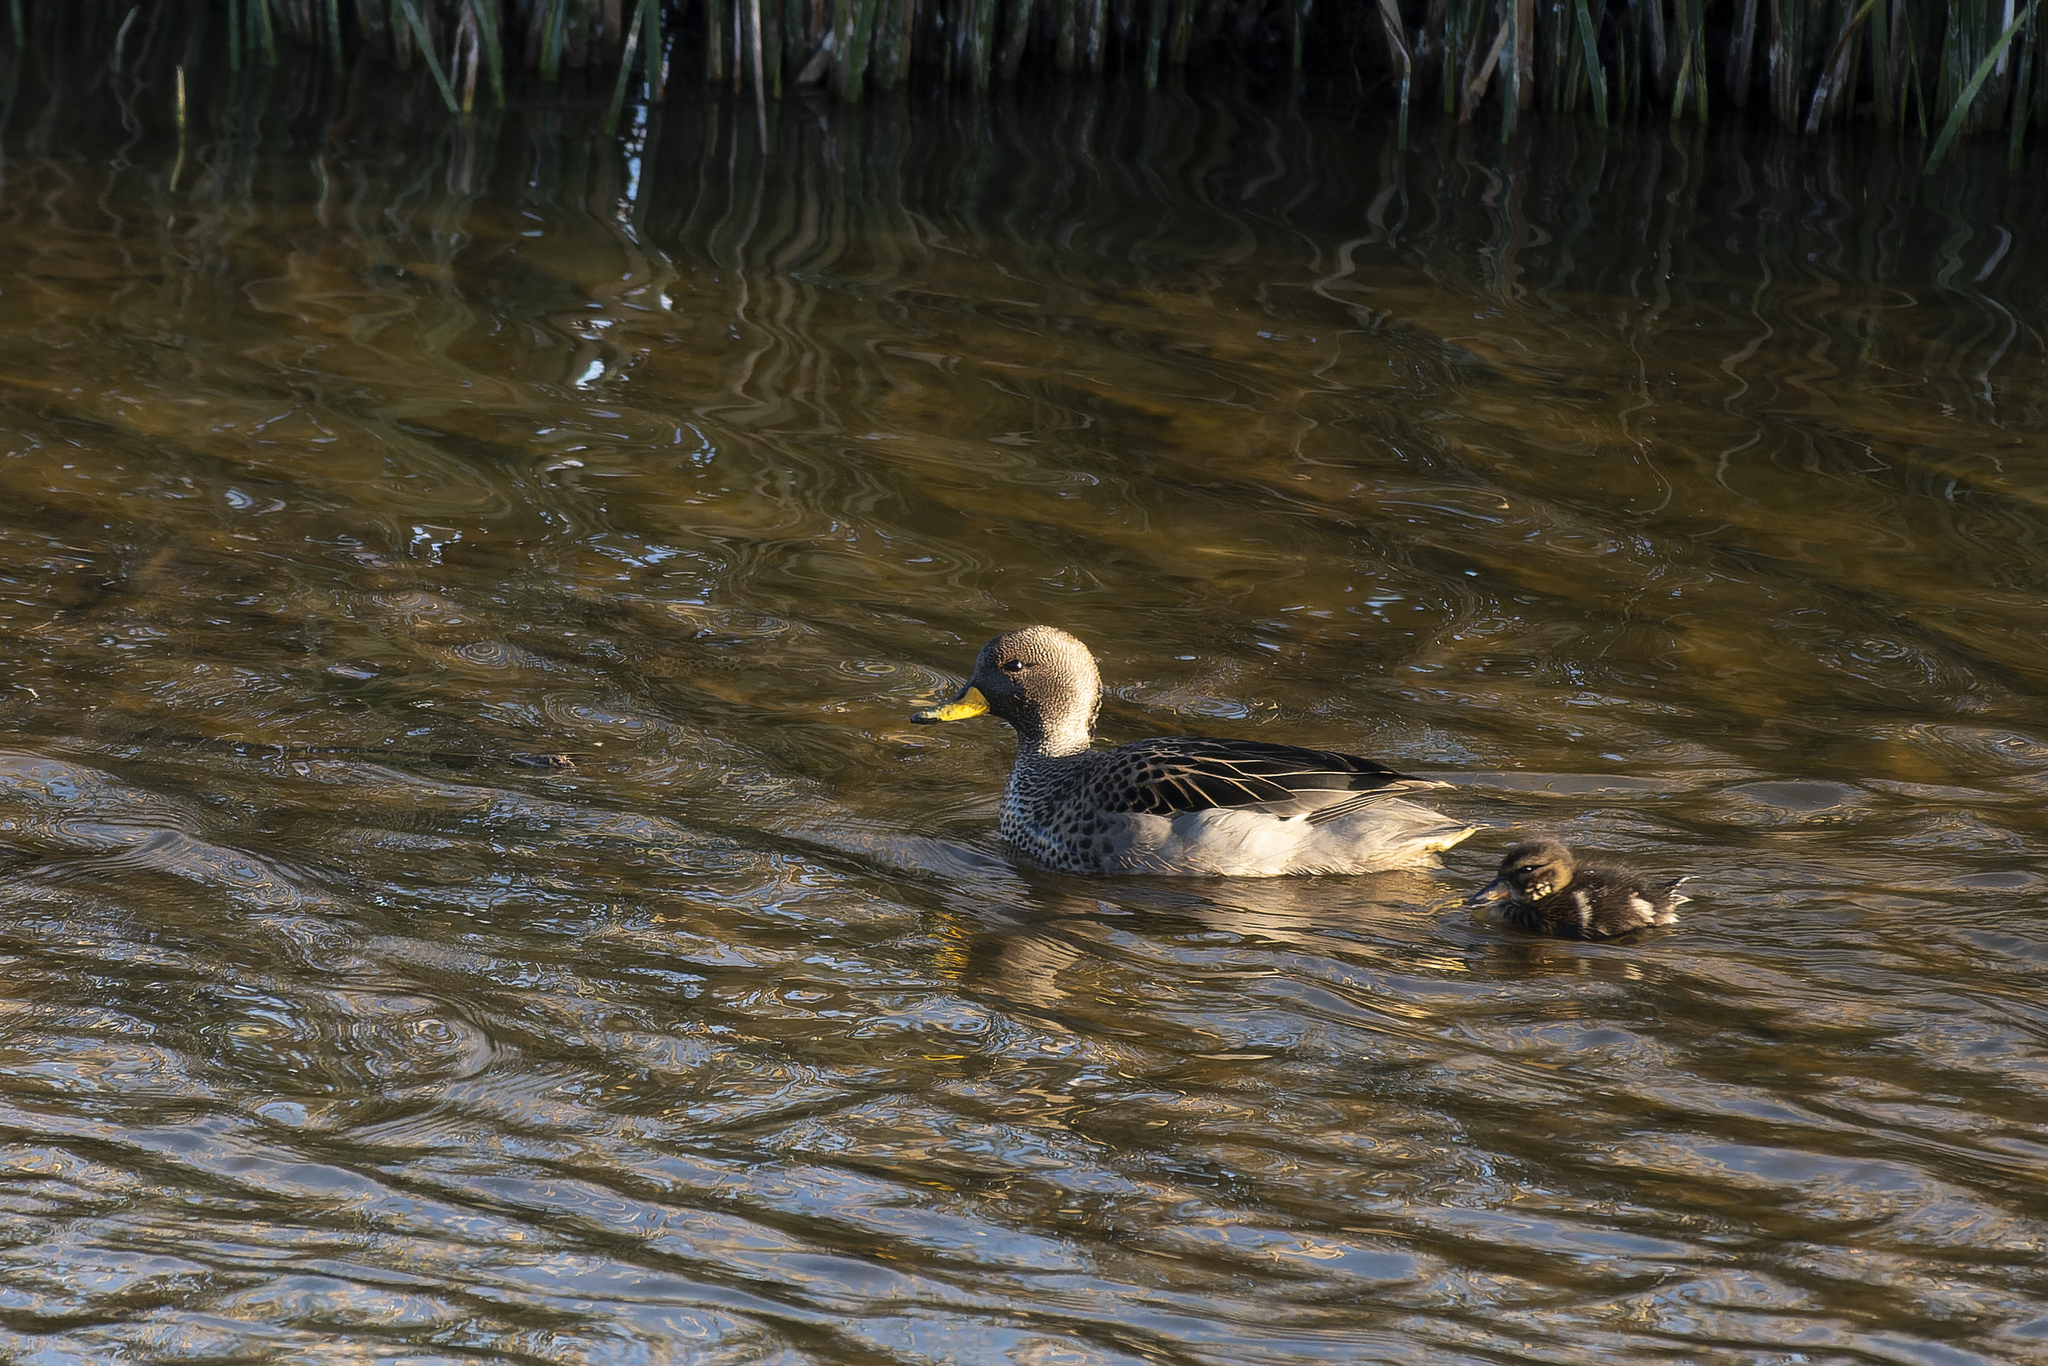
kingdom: Animalia
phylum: Chordata
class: Aves
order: Anseriformes
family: Anatidae
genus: Anas
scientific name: Anas flavirostris
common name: Yellow-billed teal
